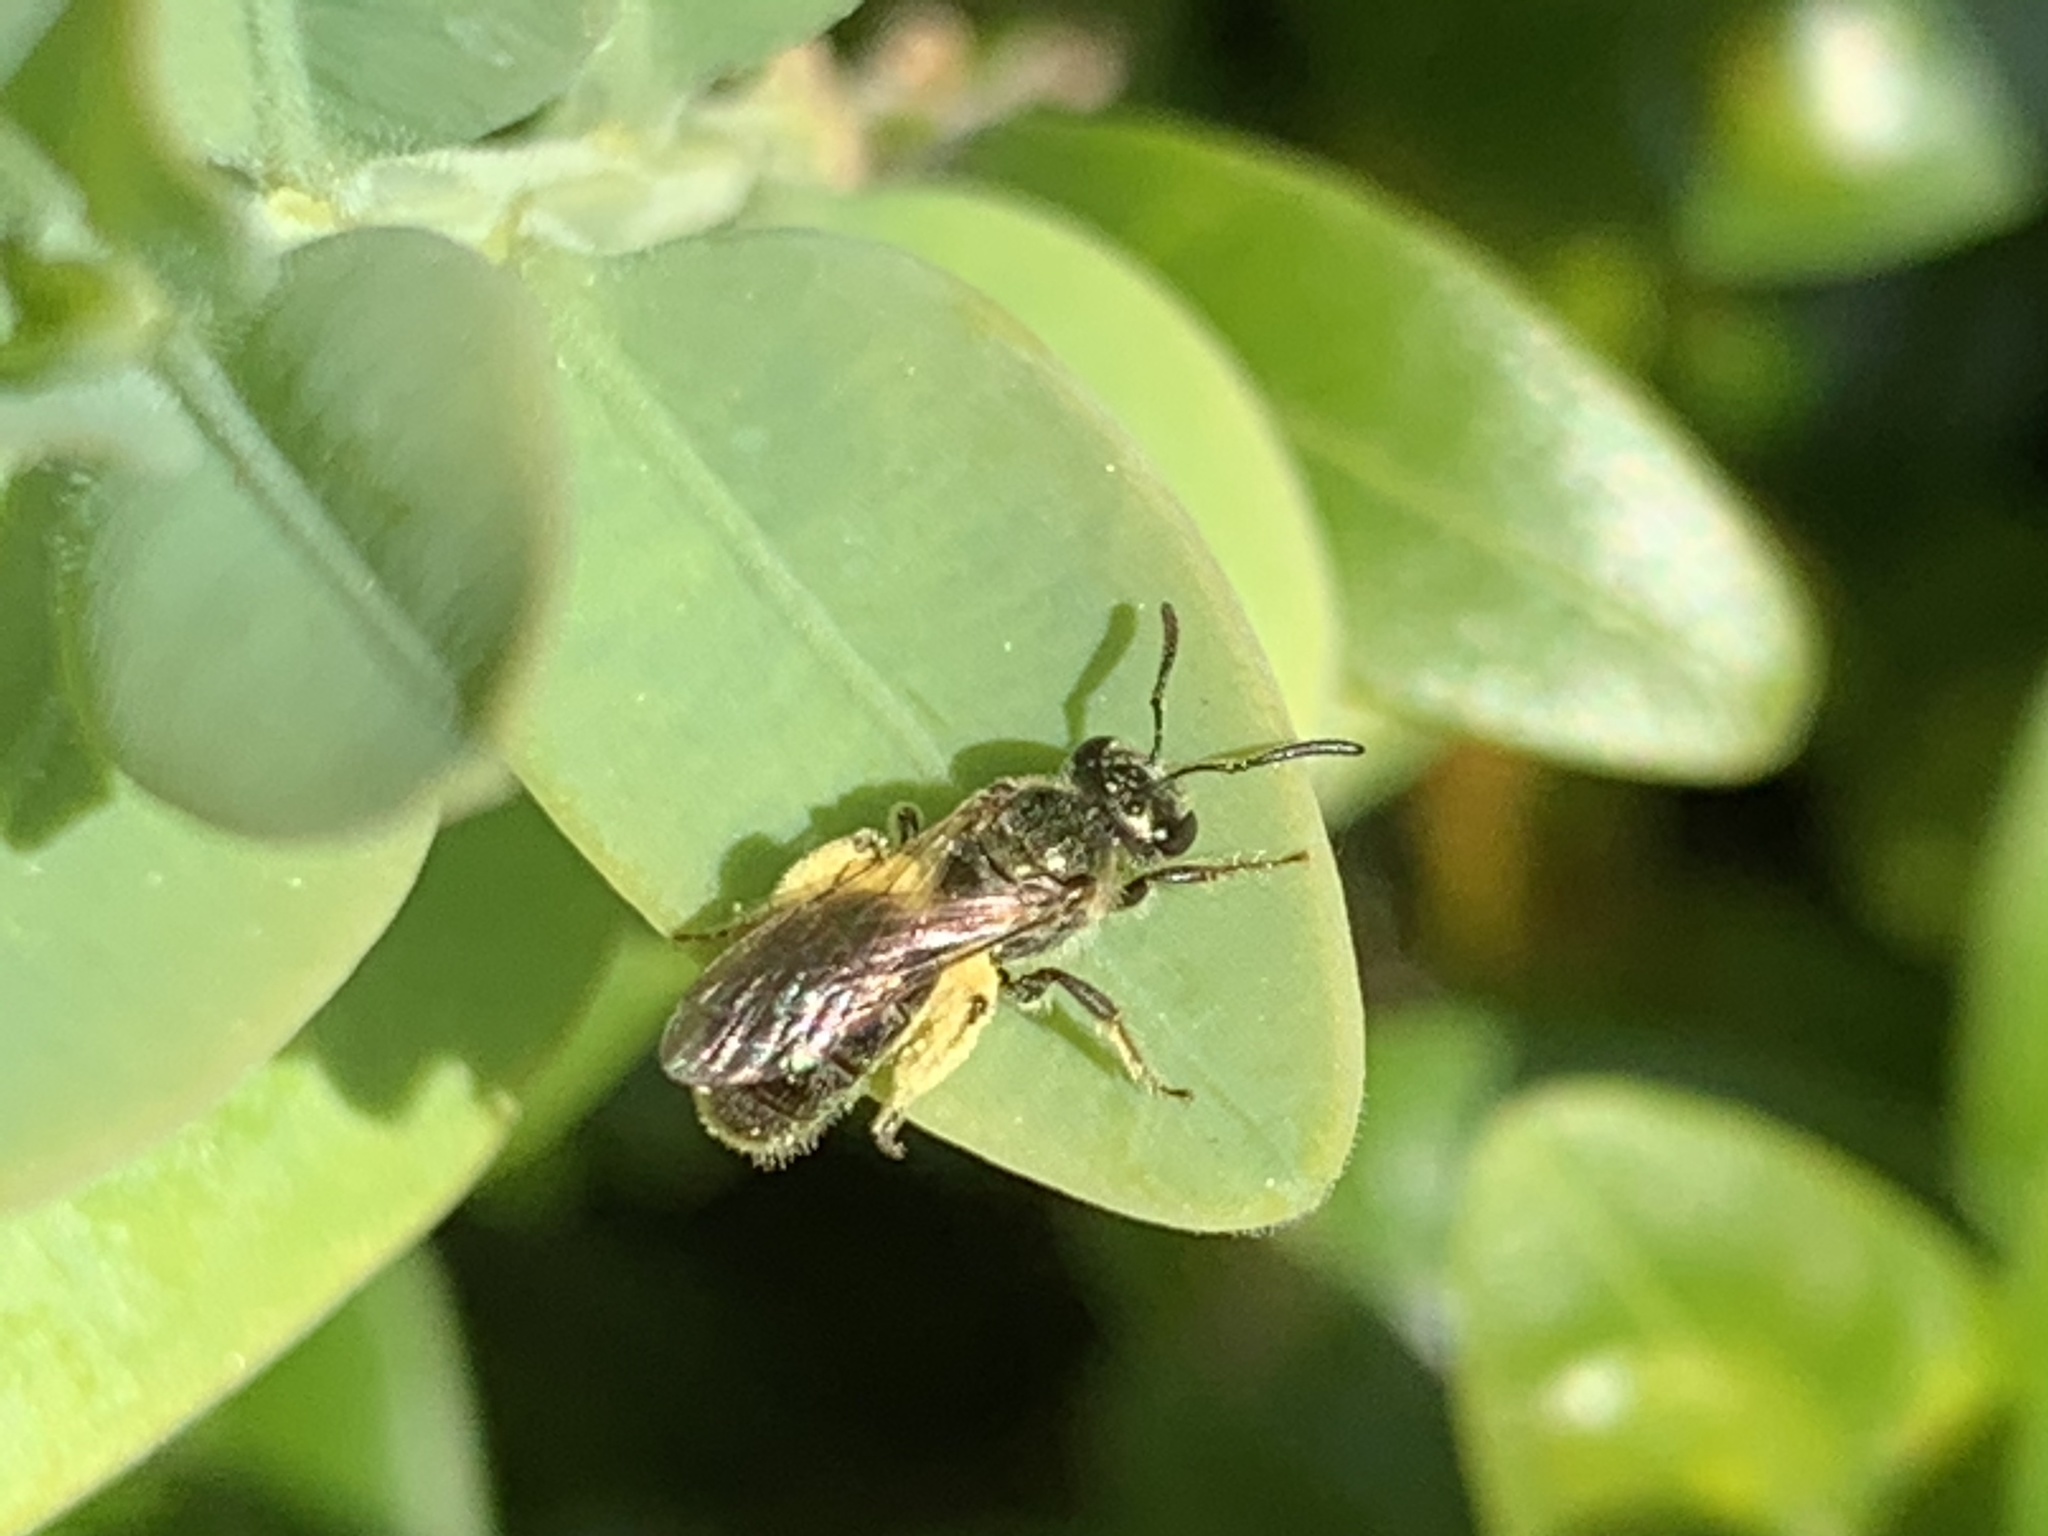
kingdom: Animalia
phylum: Arthropoda
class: Insecta
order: Hymenoptera
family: Halictidae
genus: Dialictus
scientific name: Dialictus
